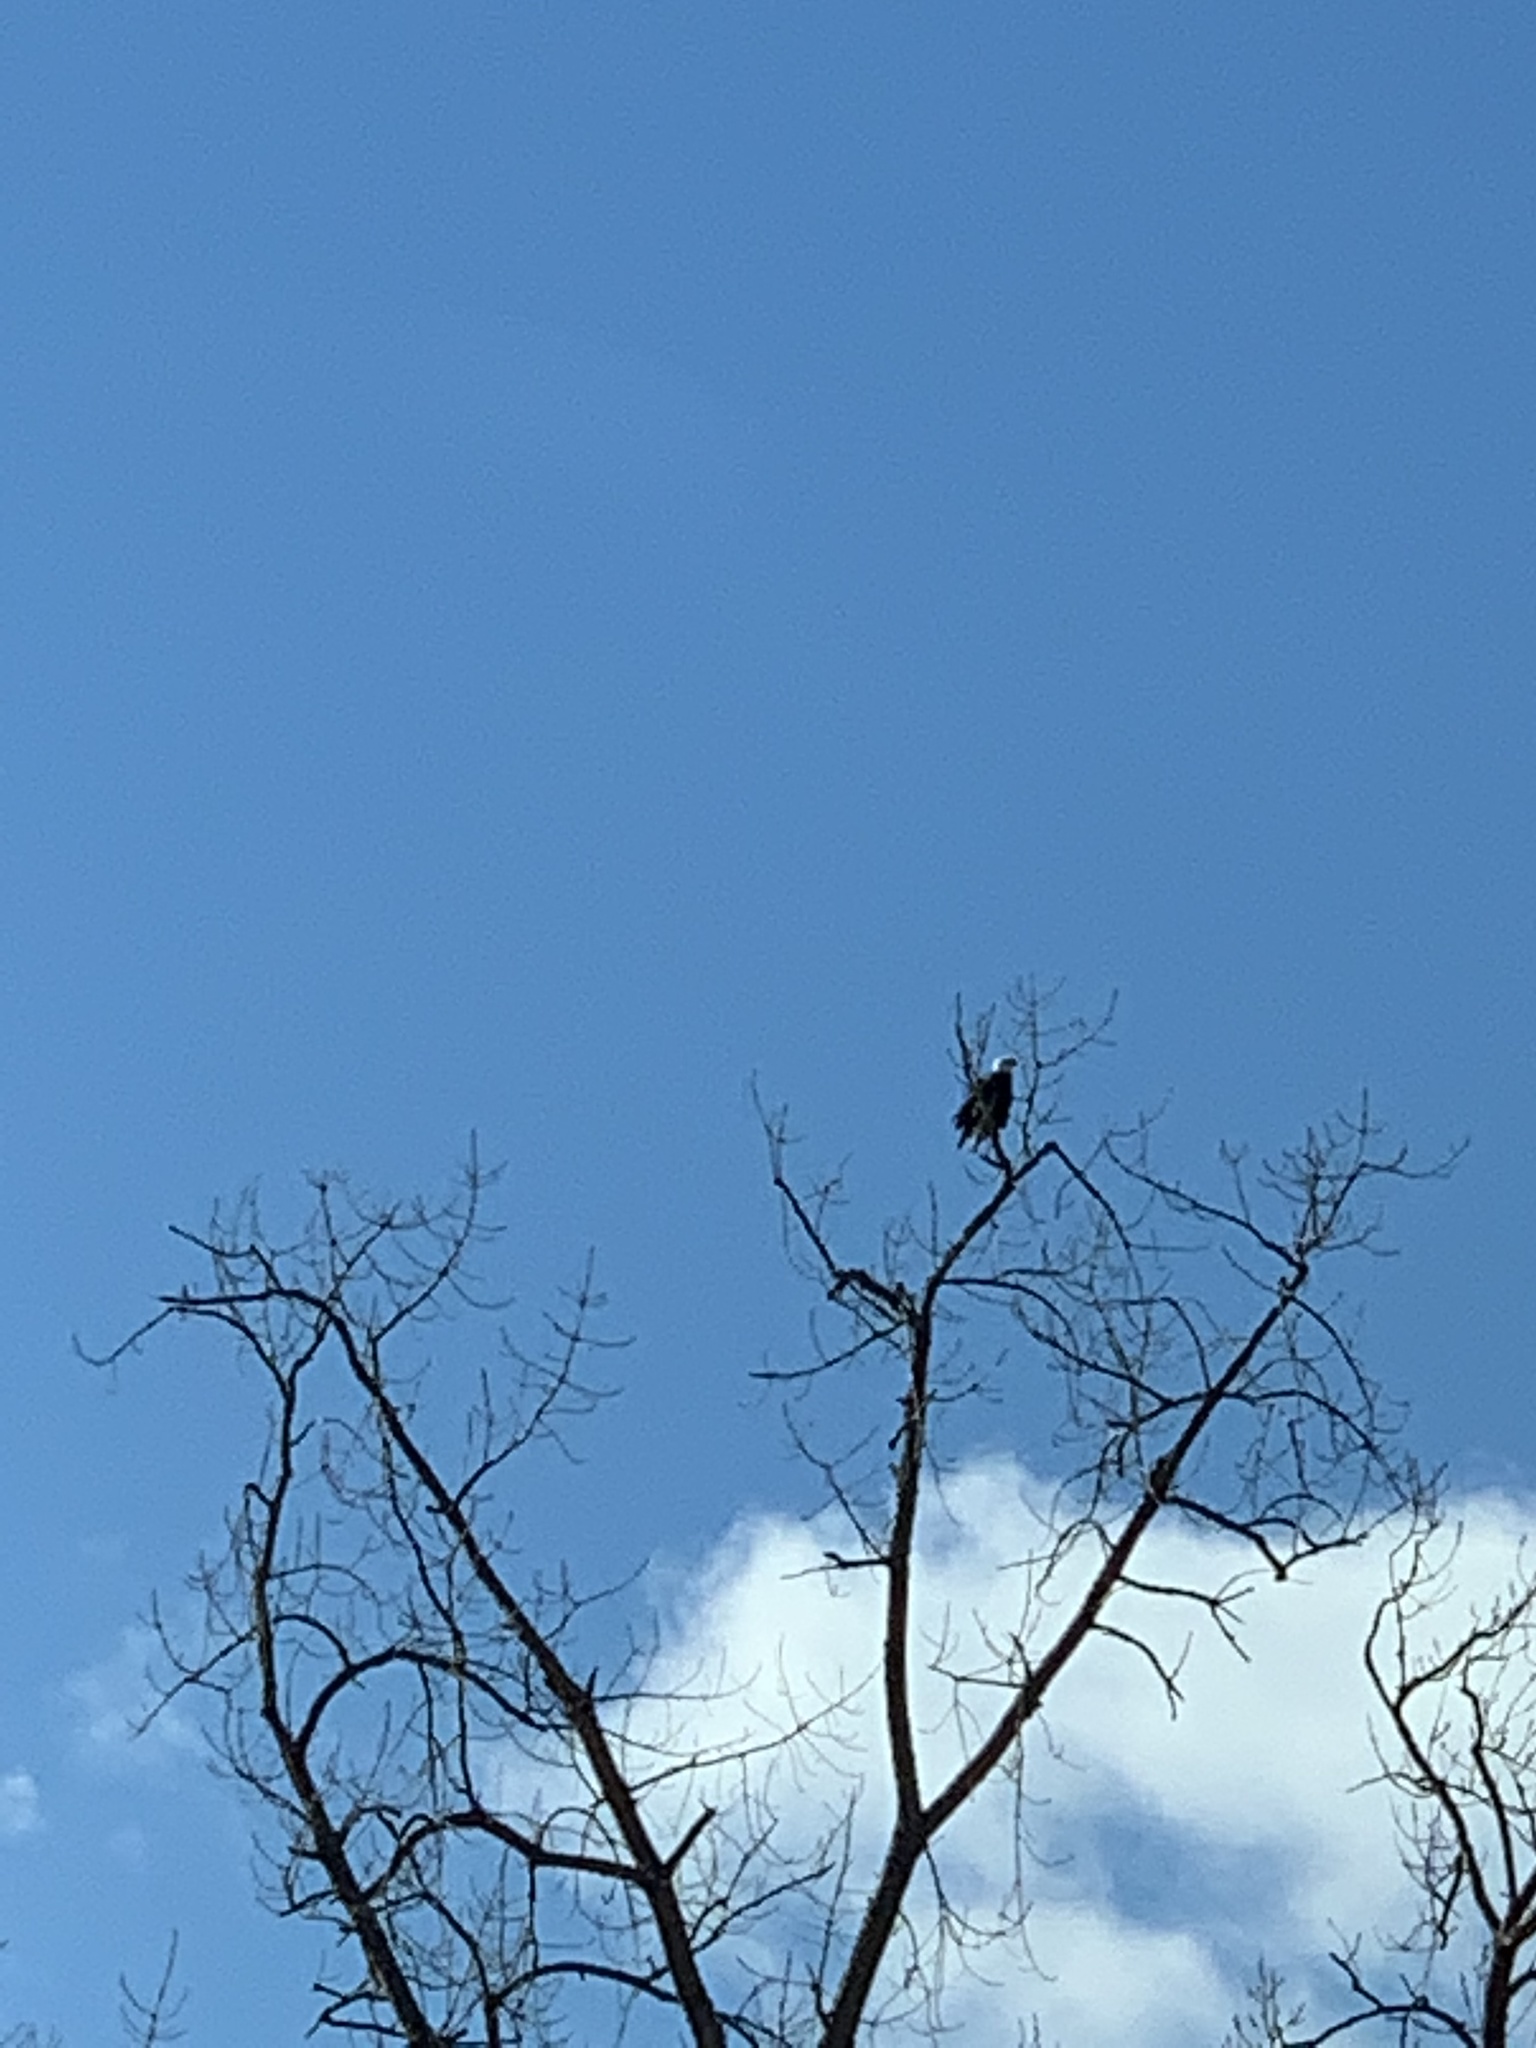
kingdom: Animalia
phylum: Chordata
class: Aves
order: Accipitriformes
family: Accipitridae
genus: Haliaeetus
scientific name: Haliaeetus leucocephalus
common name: Bald eagle
